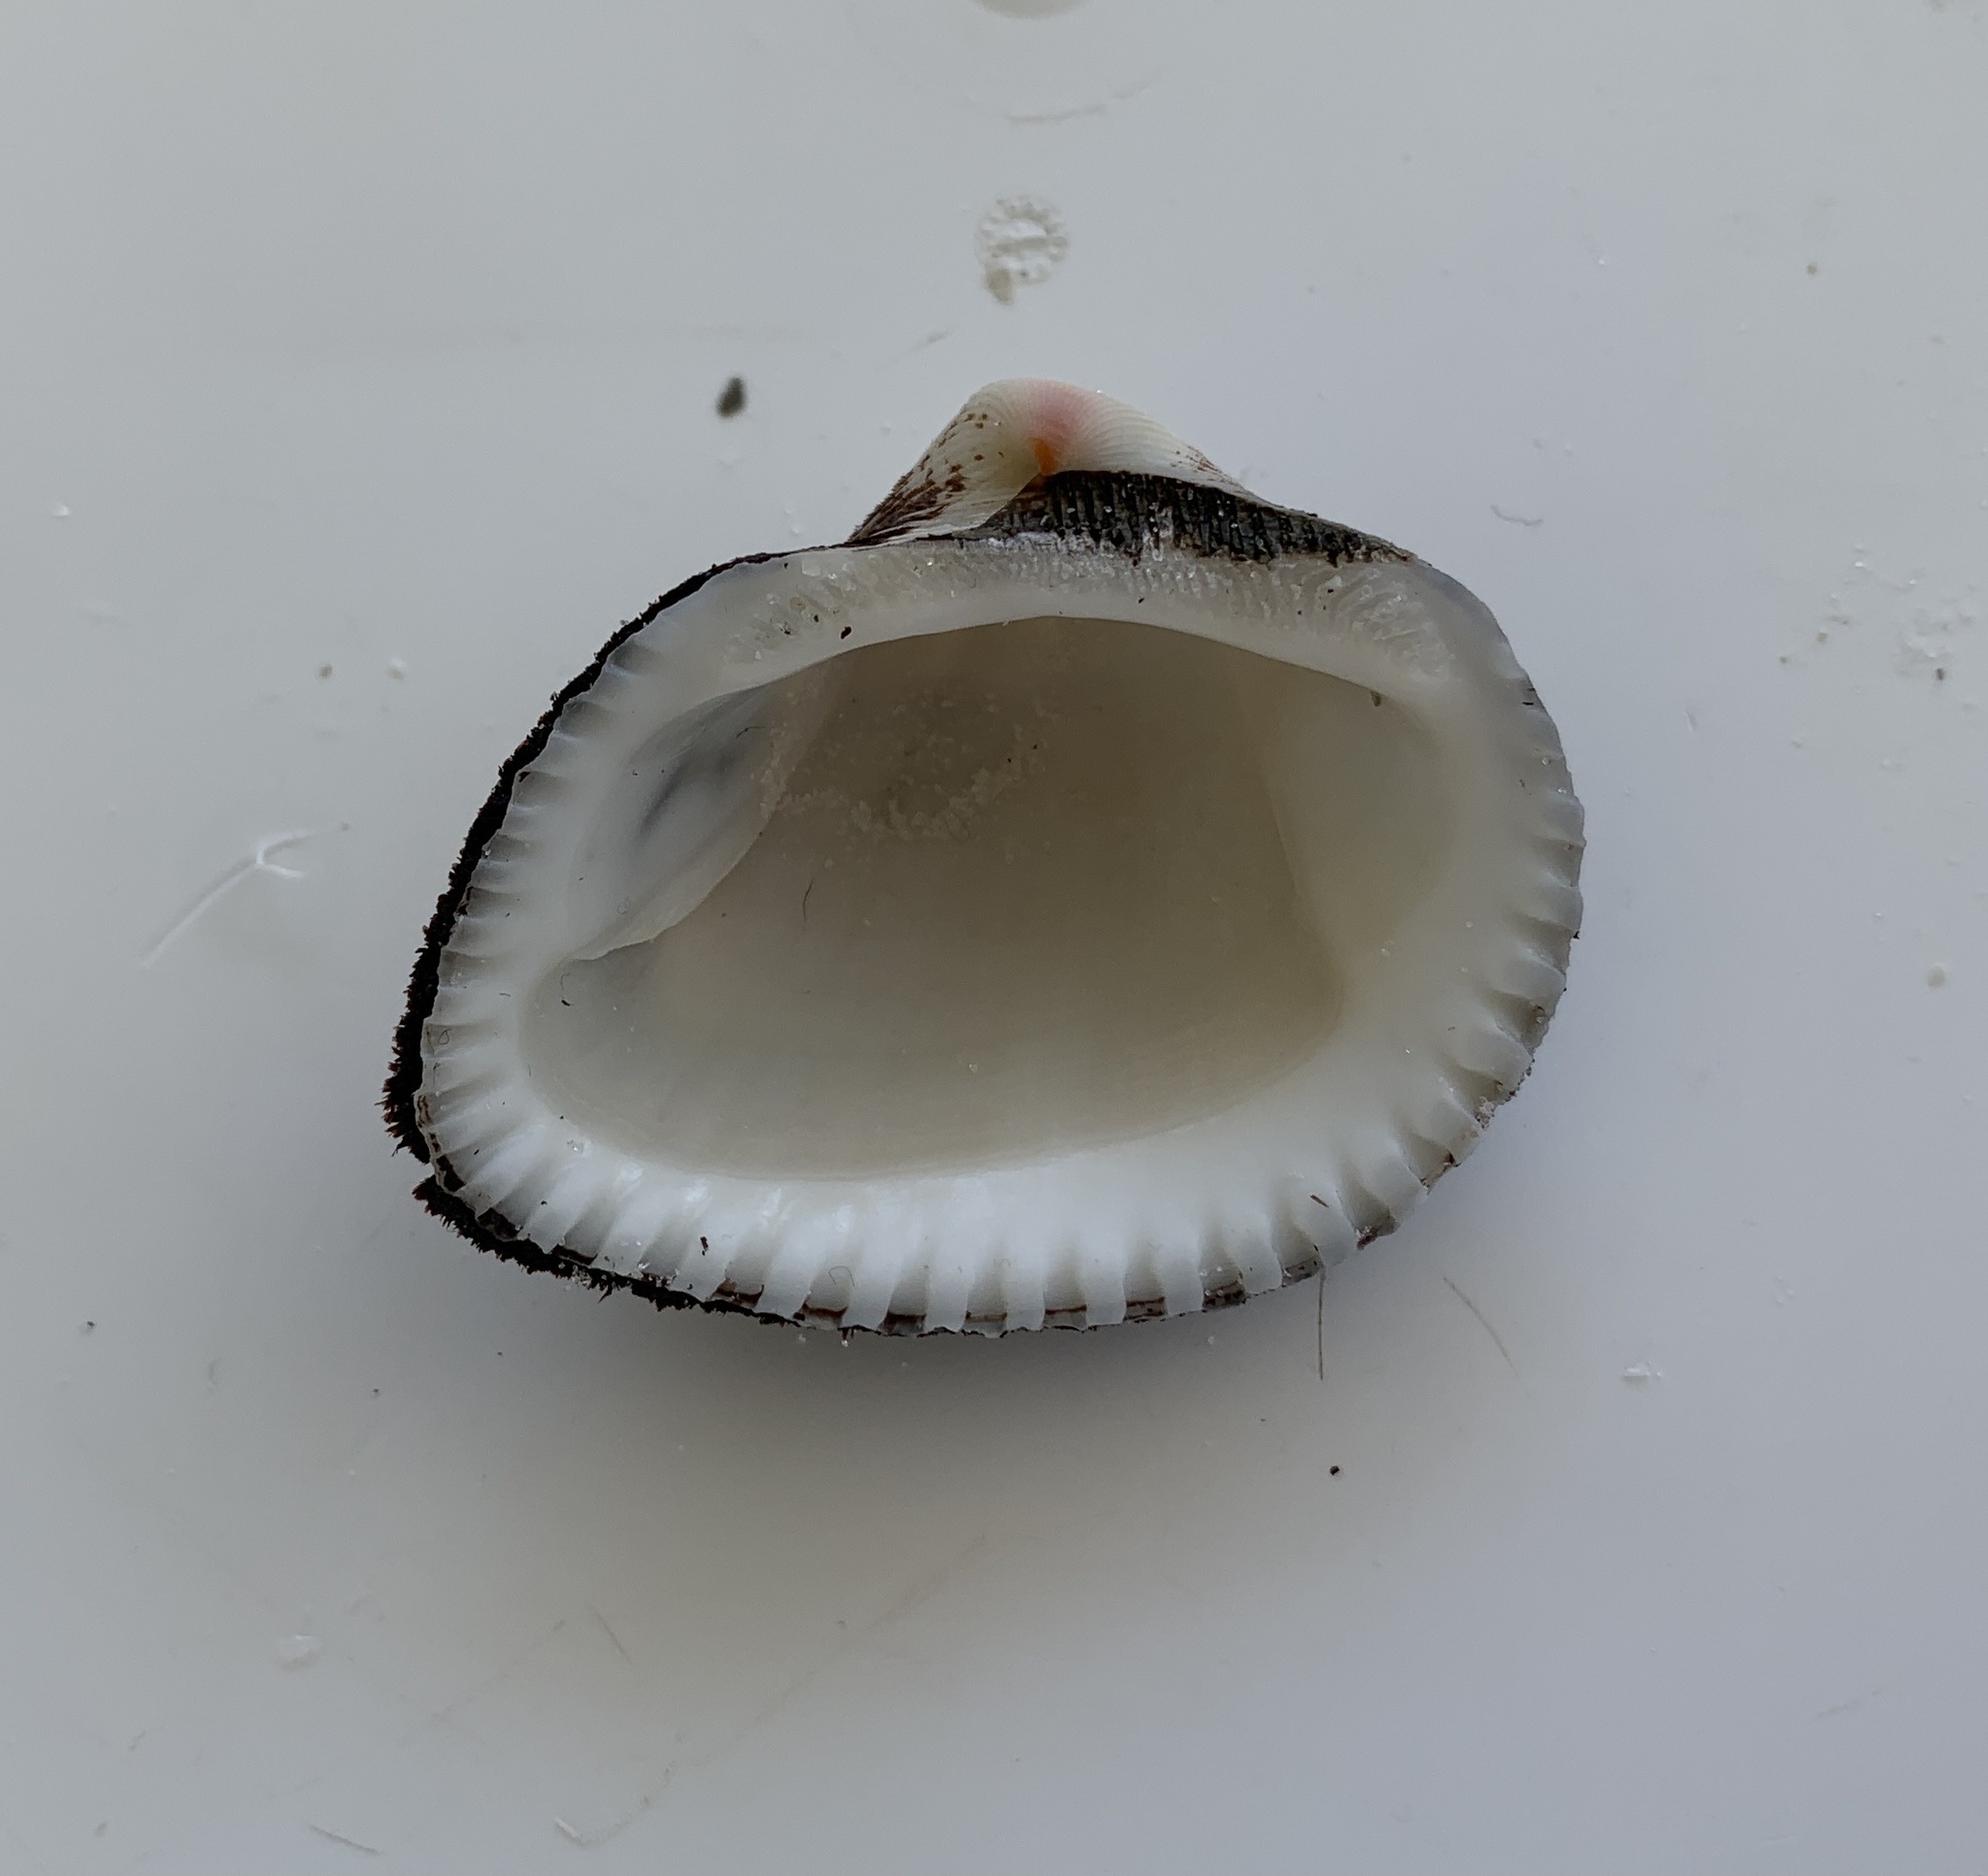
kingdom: Animalia
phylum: Mollusca
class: Bivalvia
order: Arcida
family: Noetiidae
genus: Noetia
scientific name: Noetia ponderosa
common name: Ponderous ark
